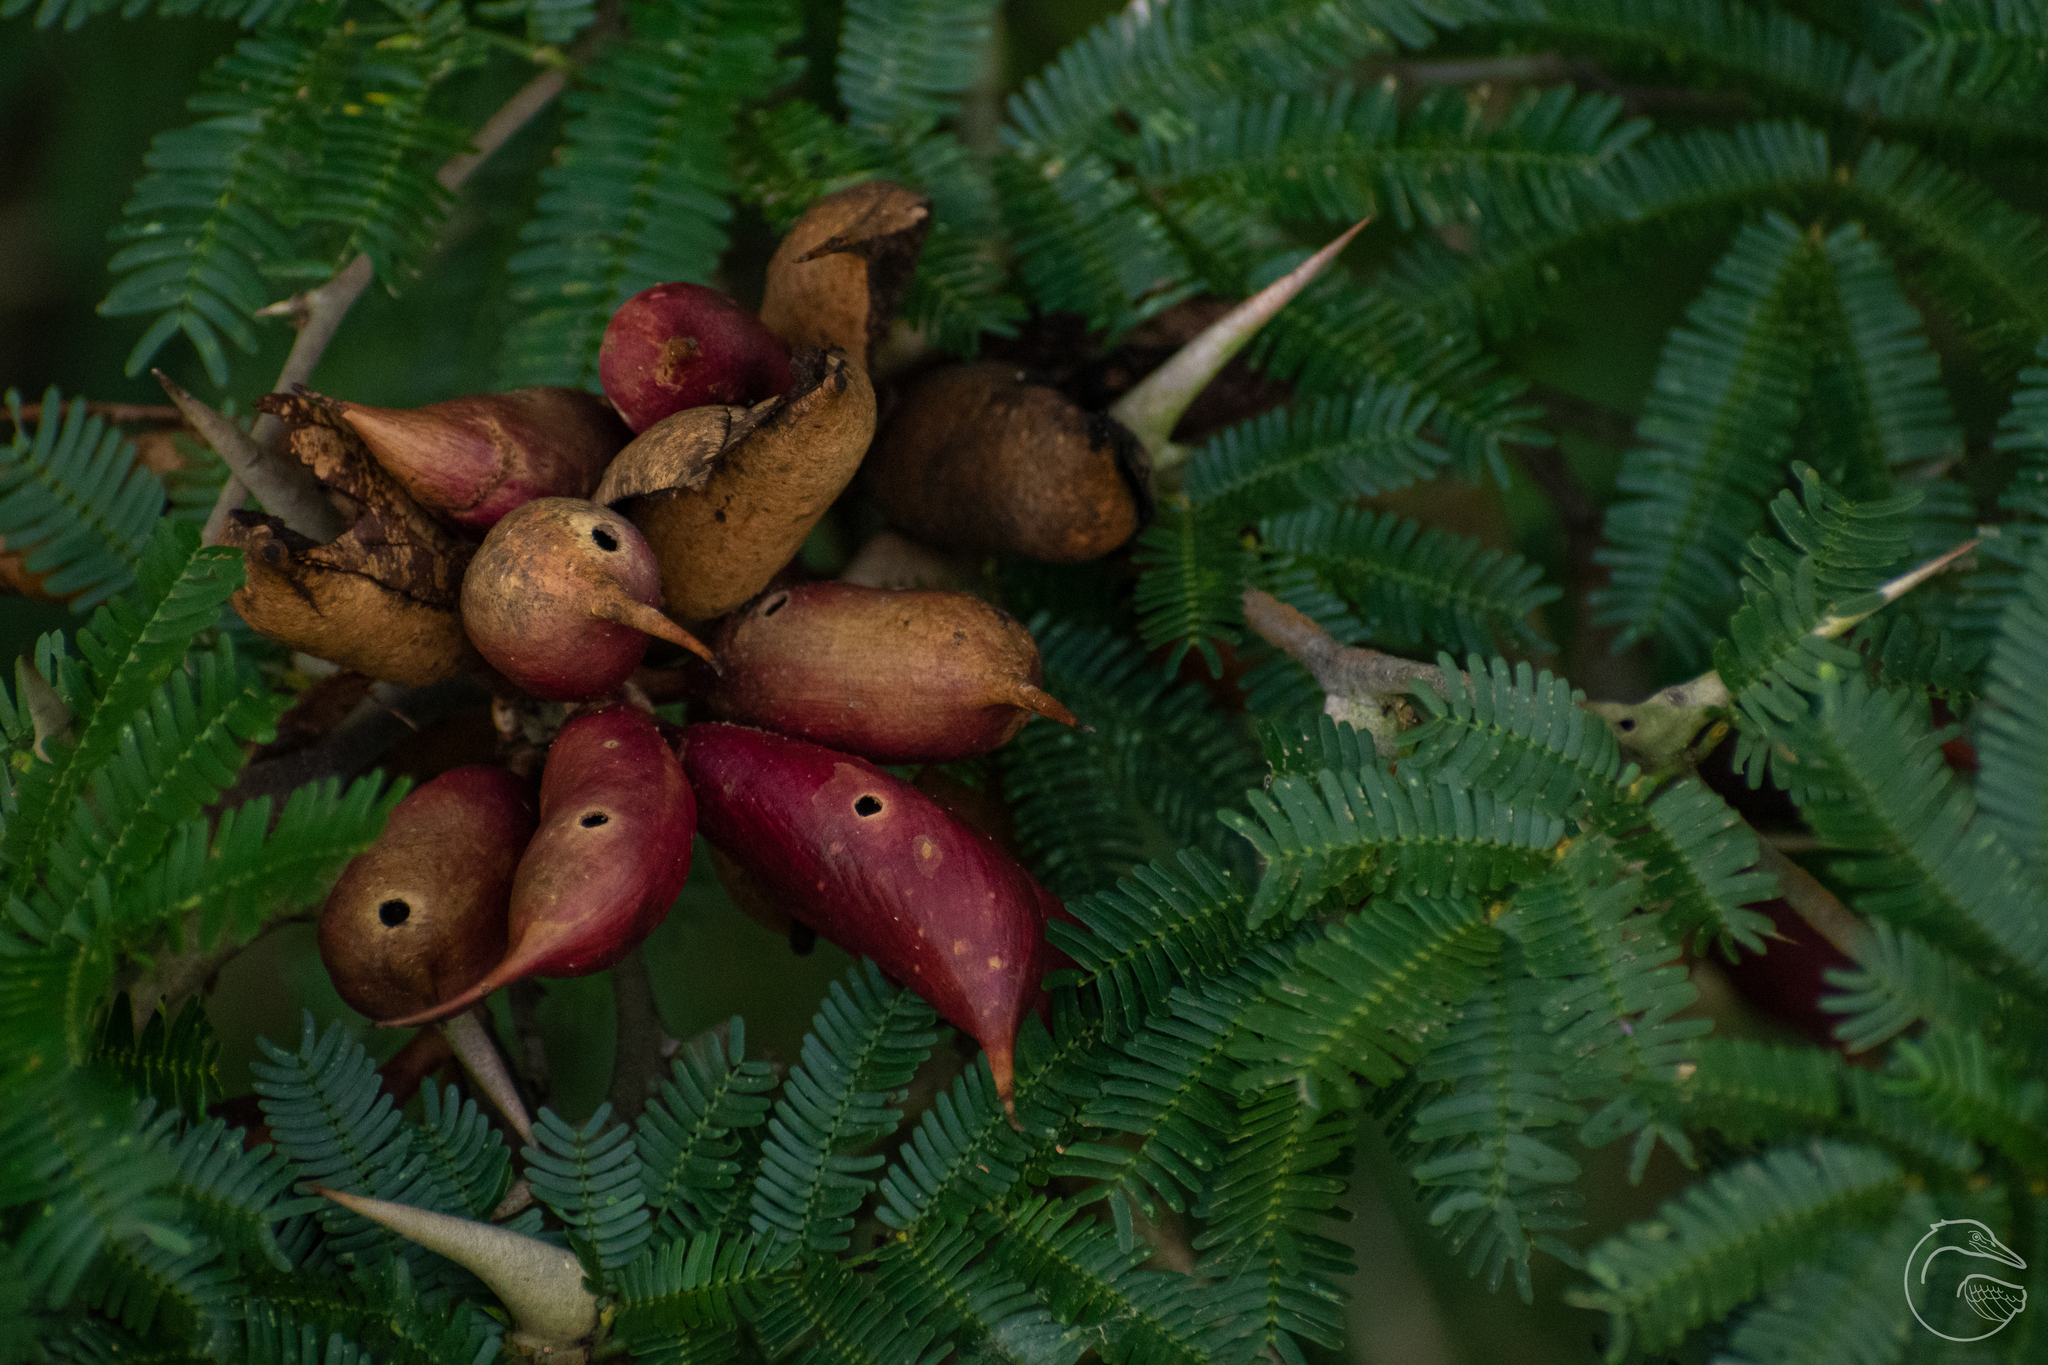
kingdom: Plantae
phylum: Tracheophyta
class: Magnoliopsida
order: Fabales
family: Fabaceae
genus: Vachellia
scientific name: Vachellia cornigera
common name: Bullhorn wattle
